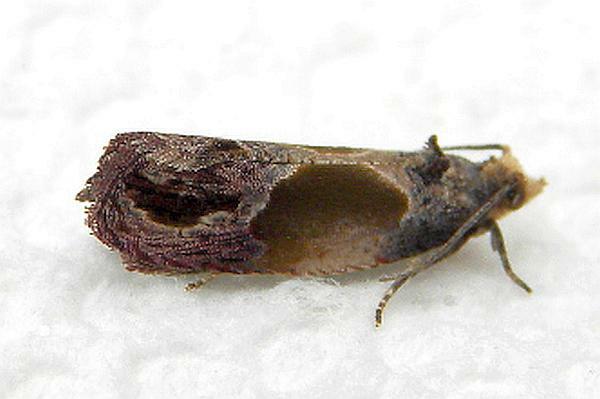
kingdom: Animalia
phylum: Arthropoda
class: Insecta
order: Lepidoptera
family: Tortricidae
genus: Eumarozia
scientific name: Eumarozia malachitana
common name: Sculptured moth
